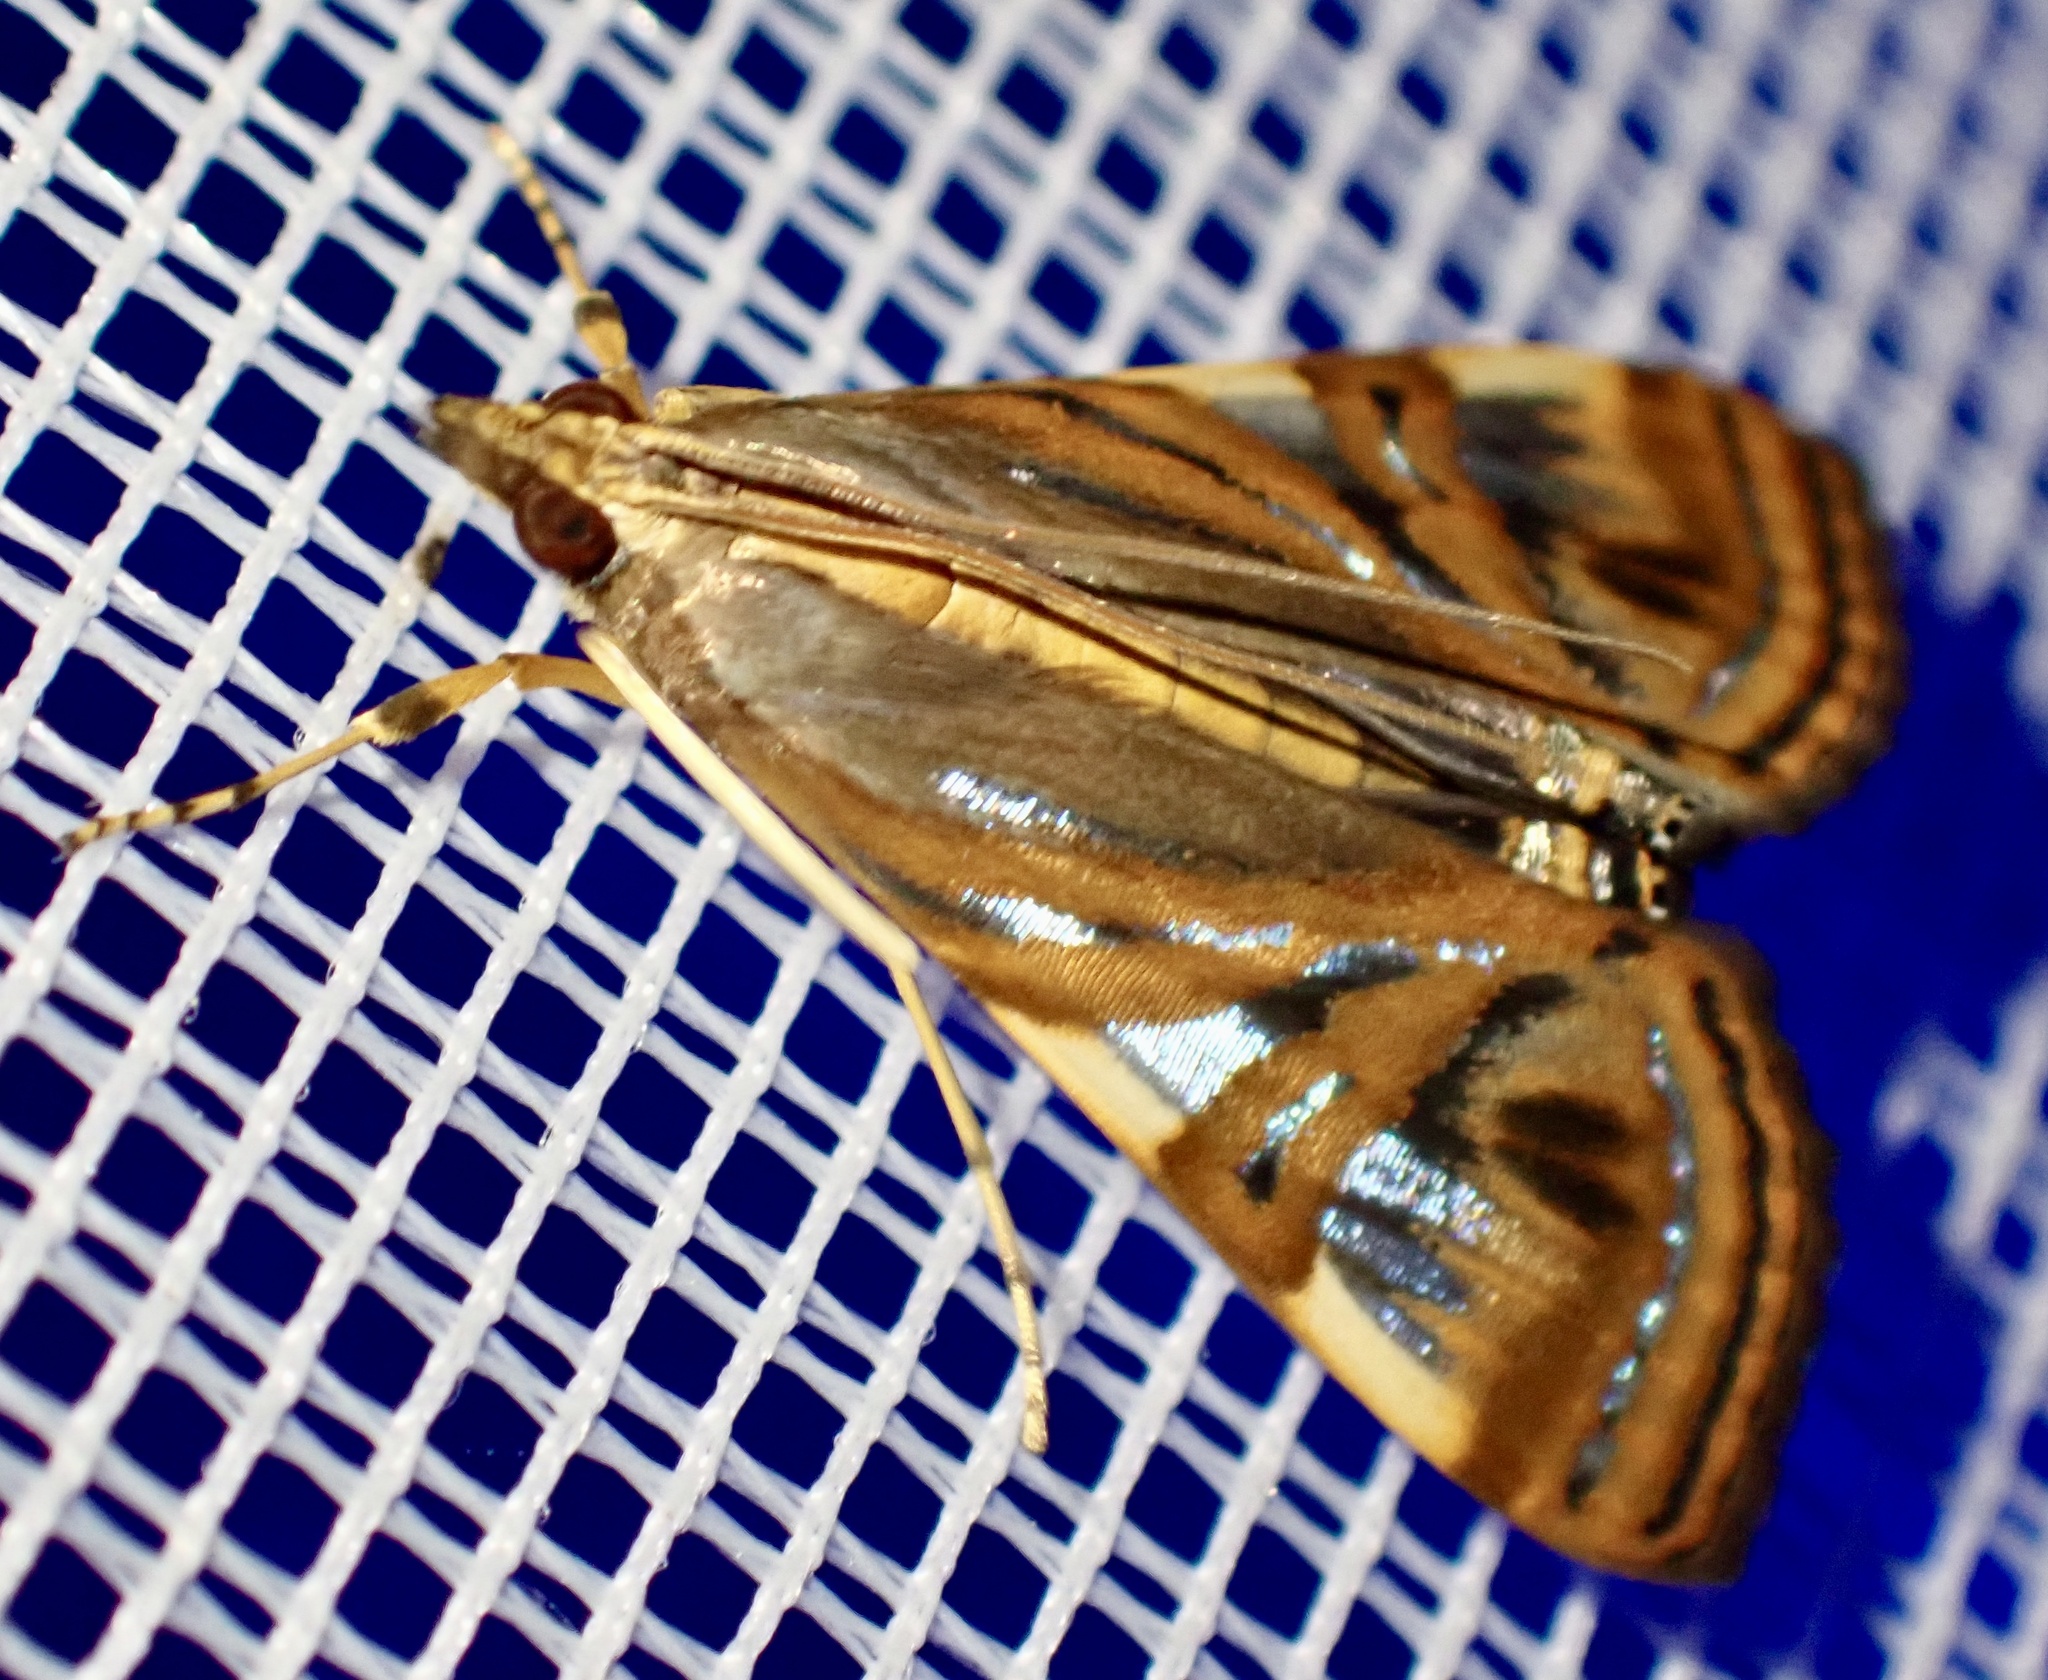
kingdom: Animalia
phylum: Arthropoda
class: Insecta
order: Lepidoptera
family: Crambidae
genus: Glyphodes
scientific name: Glyphodes
